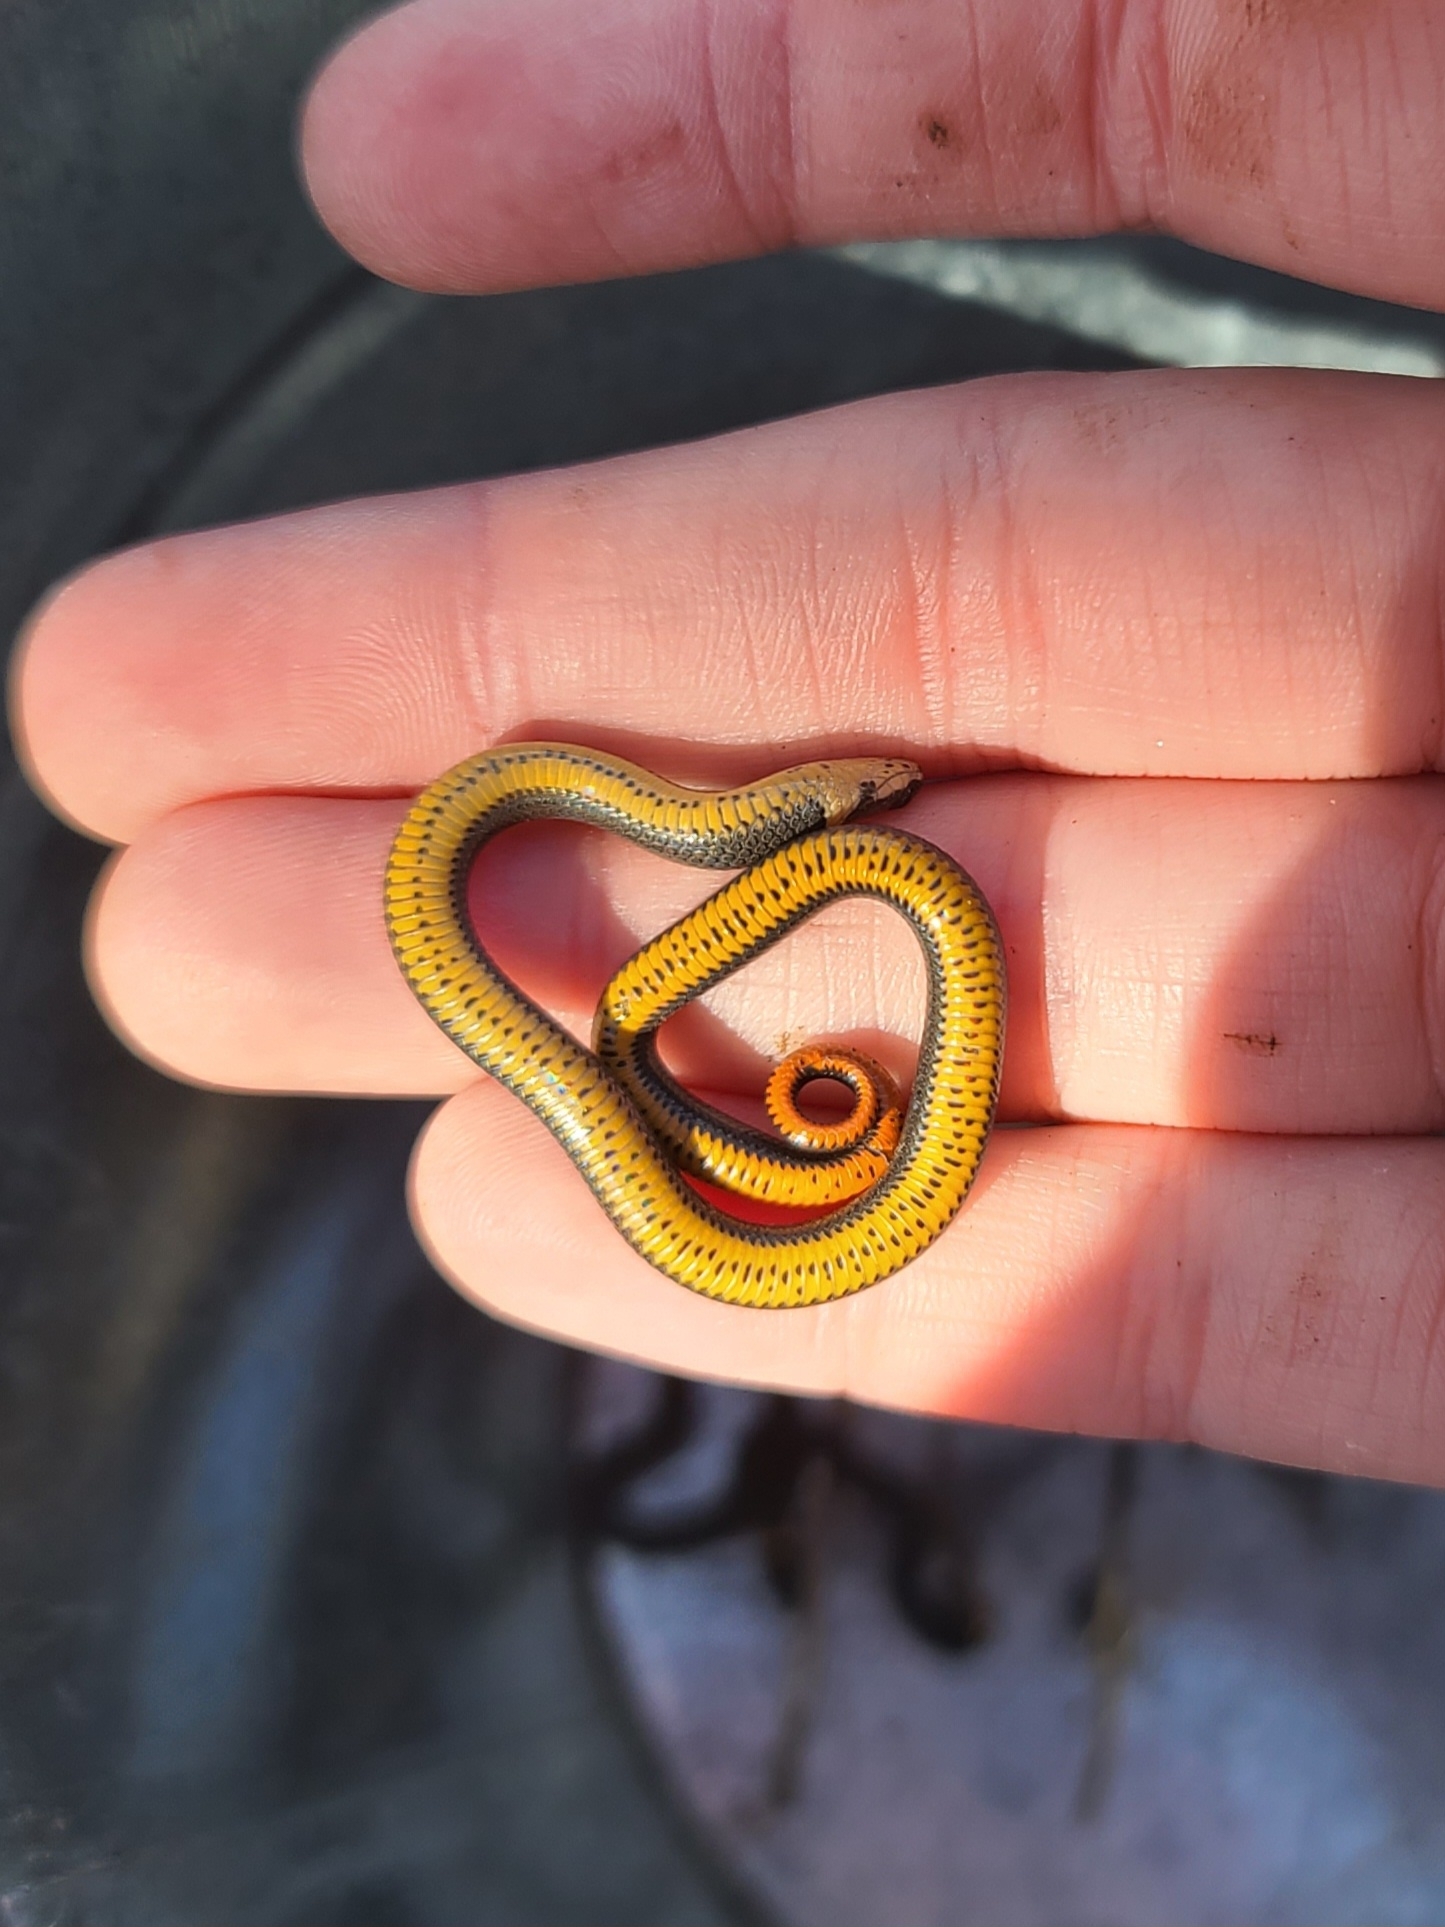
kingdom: Animalia
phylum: Chordata
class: Squamata
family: Colubridae
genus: Diadophis
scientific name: Diadophis punctatus
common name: Ringneck snake
